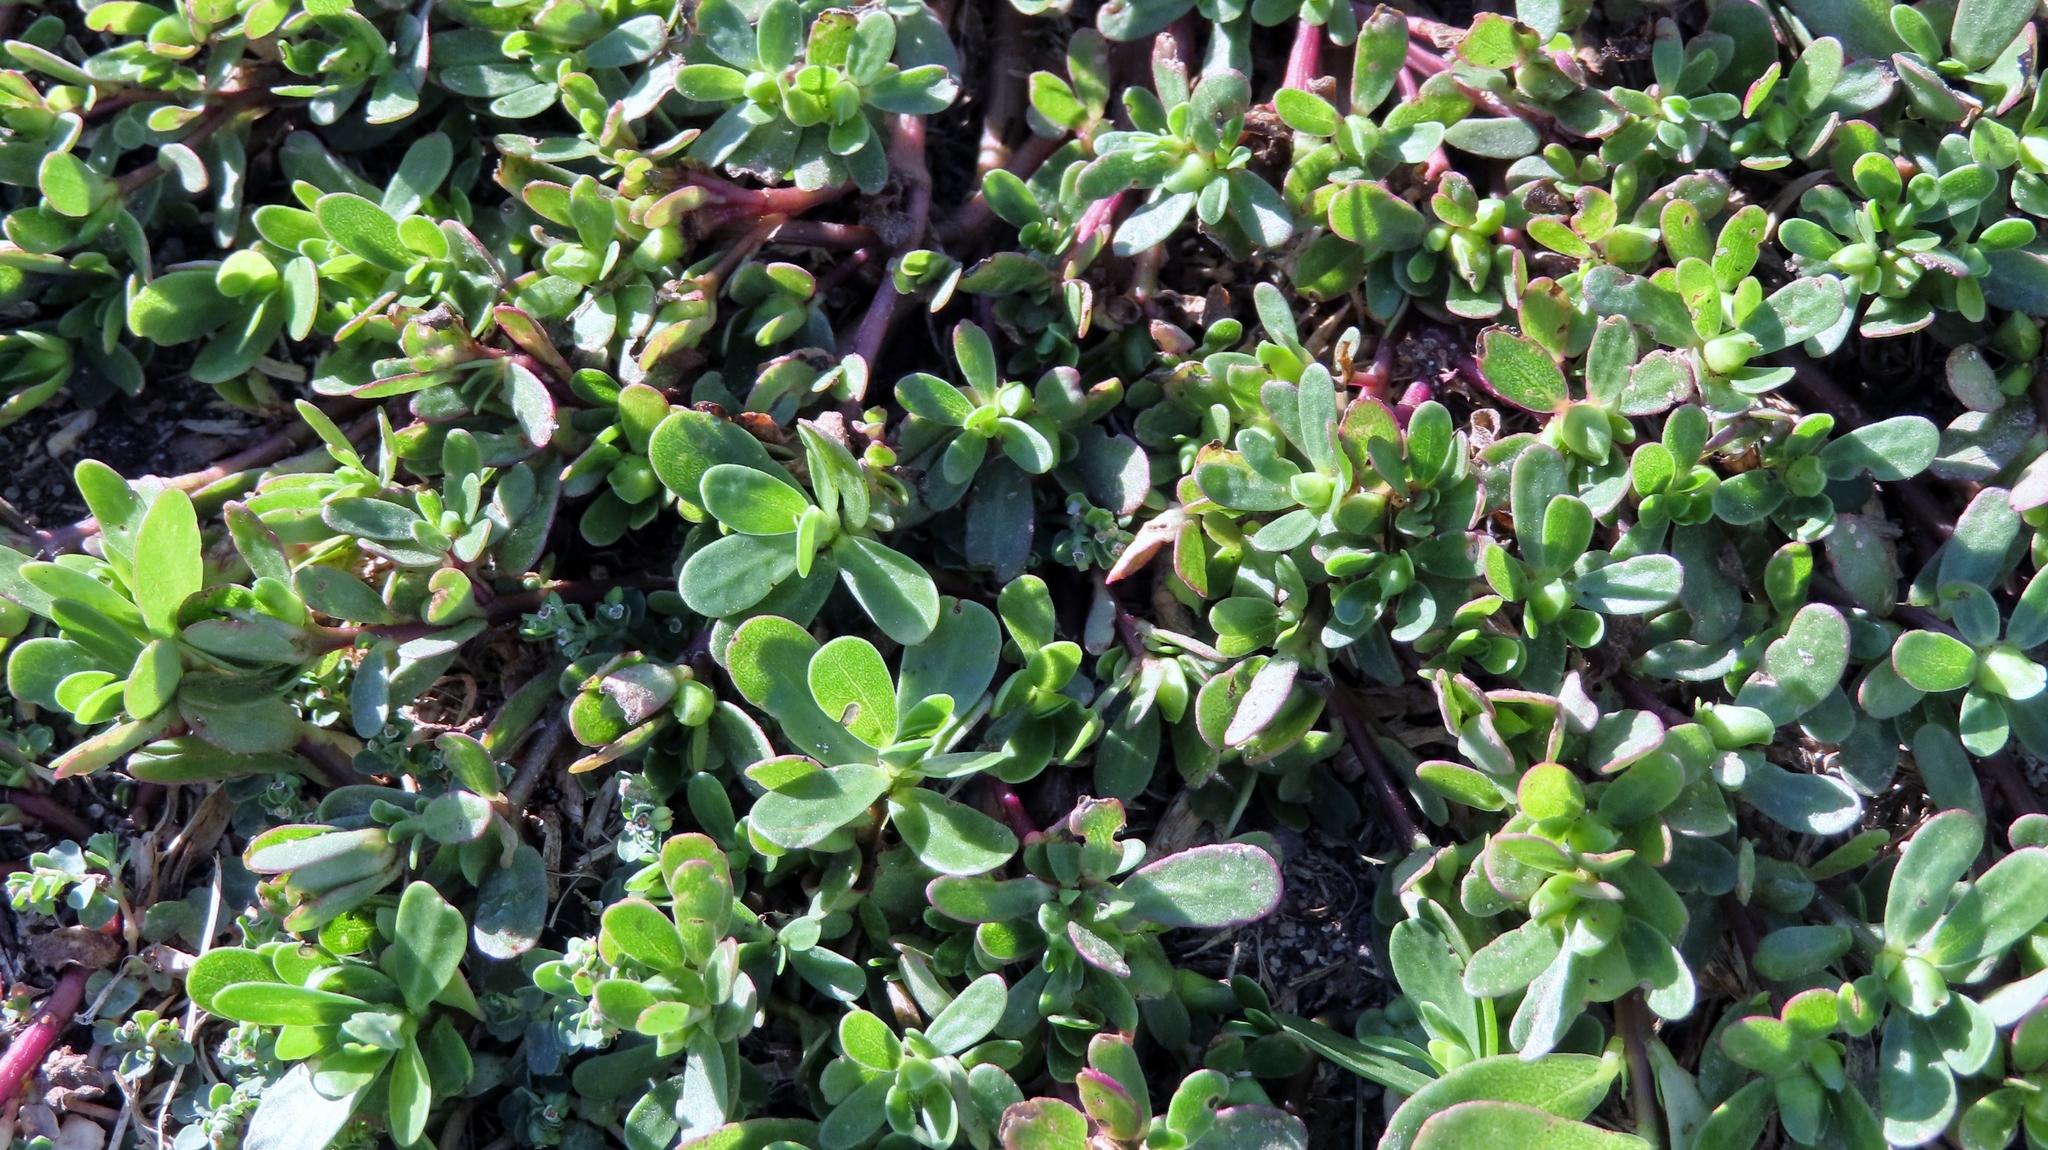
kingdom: Plantae
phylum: Tracheophyta
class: Magnoliopsida
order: Caryophyllales
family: Portulacaceae
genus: Portulaca
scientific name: Portulaca oleracea
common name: Common purslane
